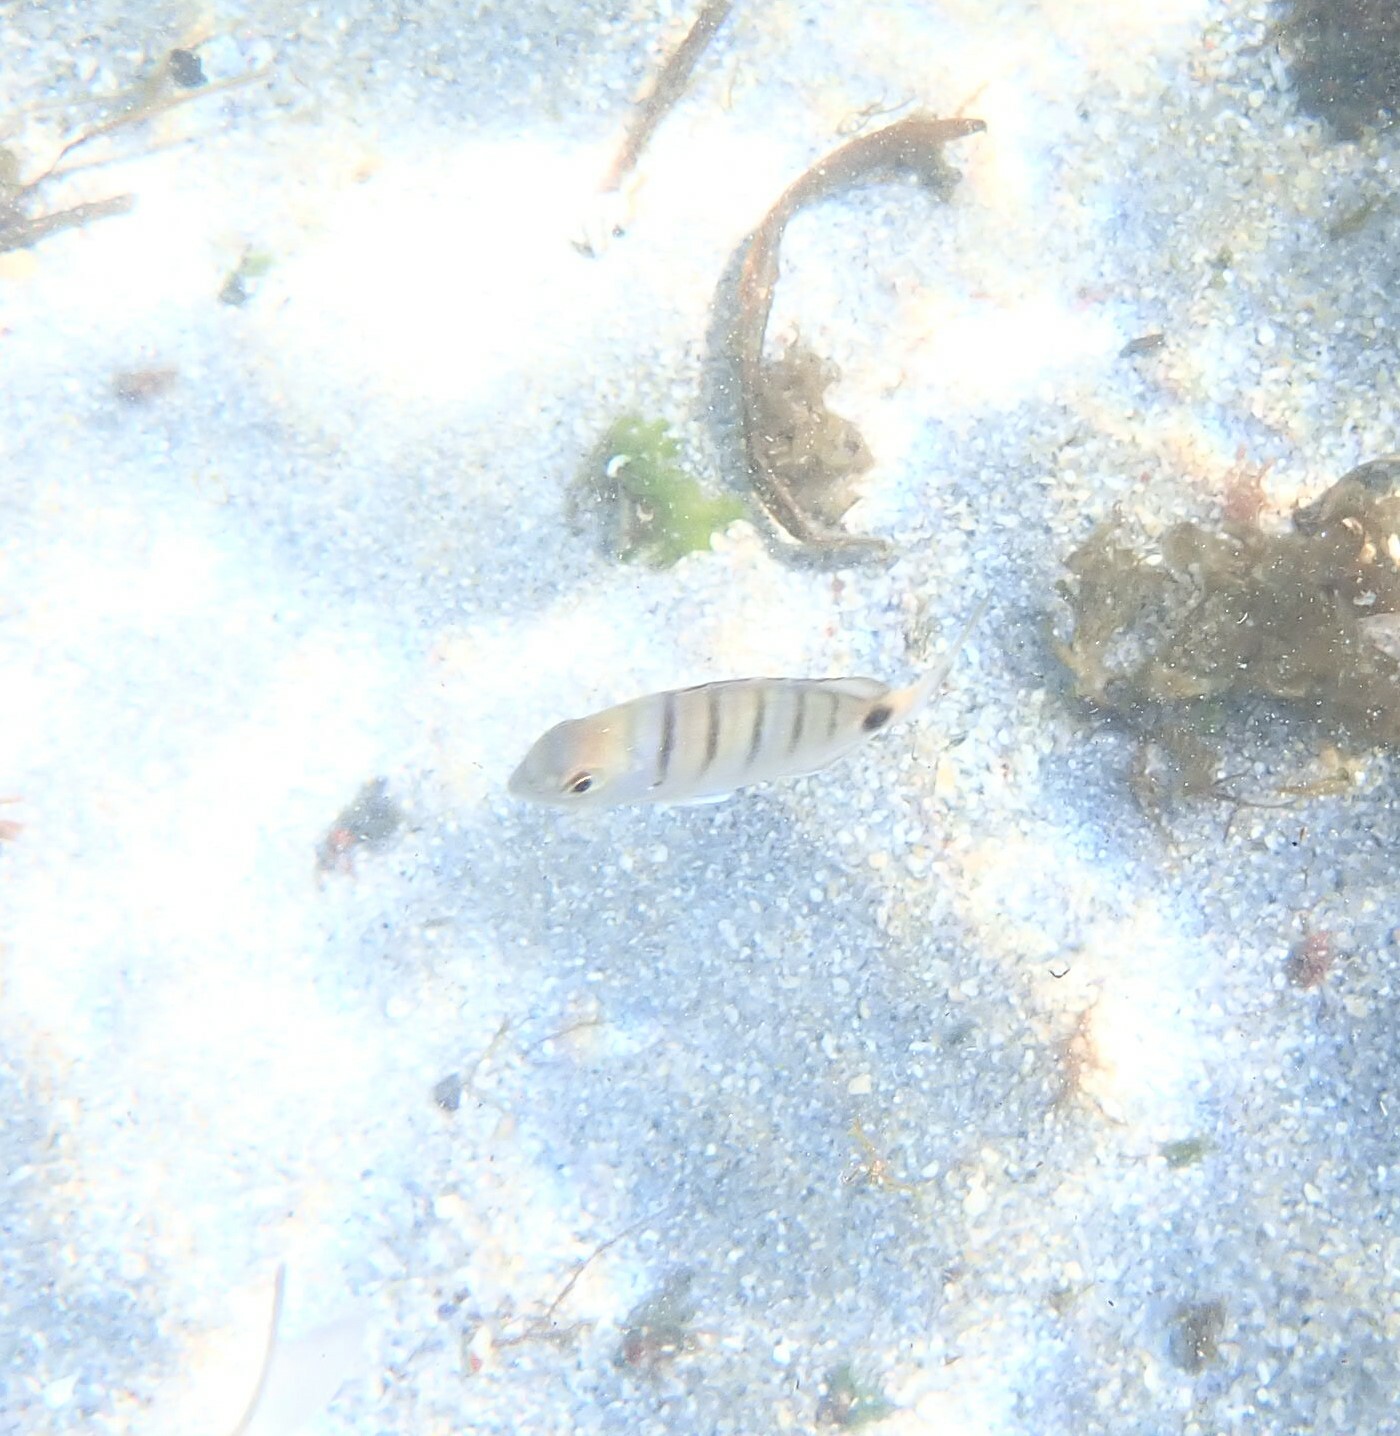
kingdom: Animalia
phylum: Chordata
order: Perciformes
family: Sparidae
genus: Diplodus
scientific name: Diplodus cadenati
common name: Moroccan white seabream
